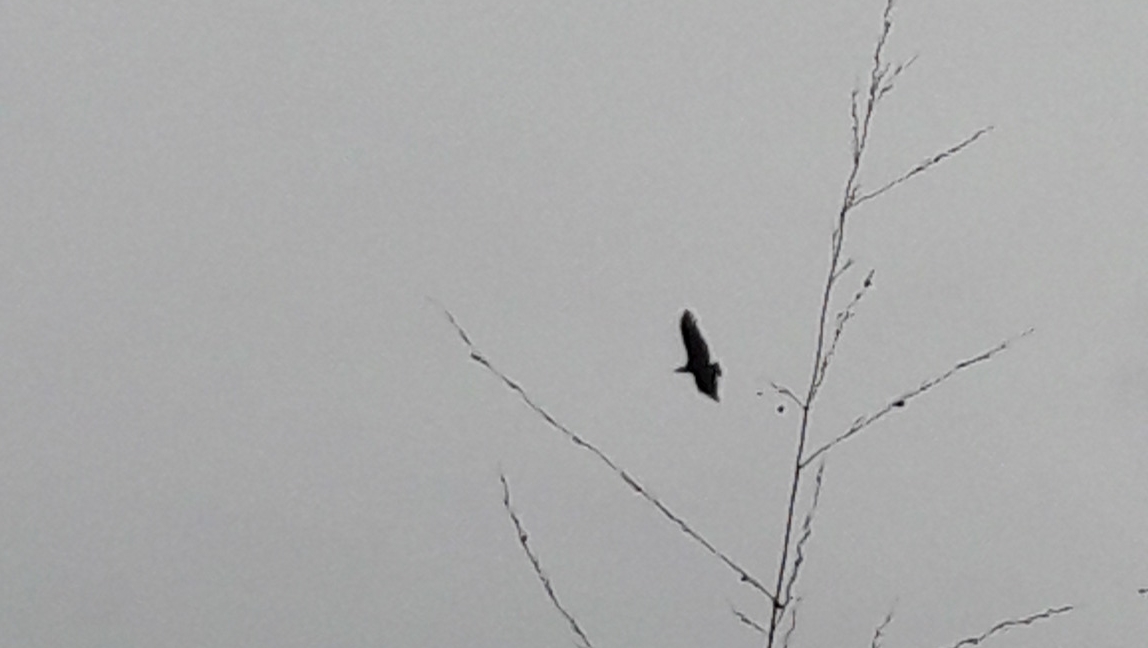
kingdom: Animalia
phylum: Chordata
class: Aves
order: Accipitriformes
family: Cathartidae
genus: Coragyps
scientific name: Coragyps atratus
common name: Black vulture
